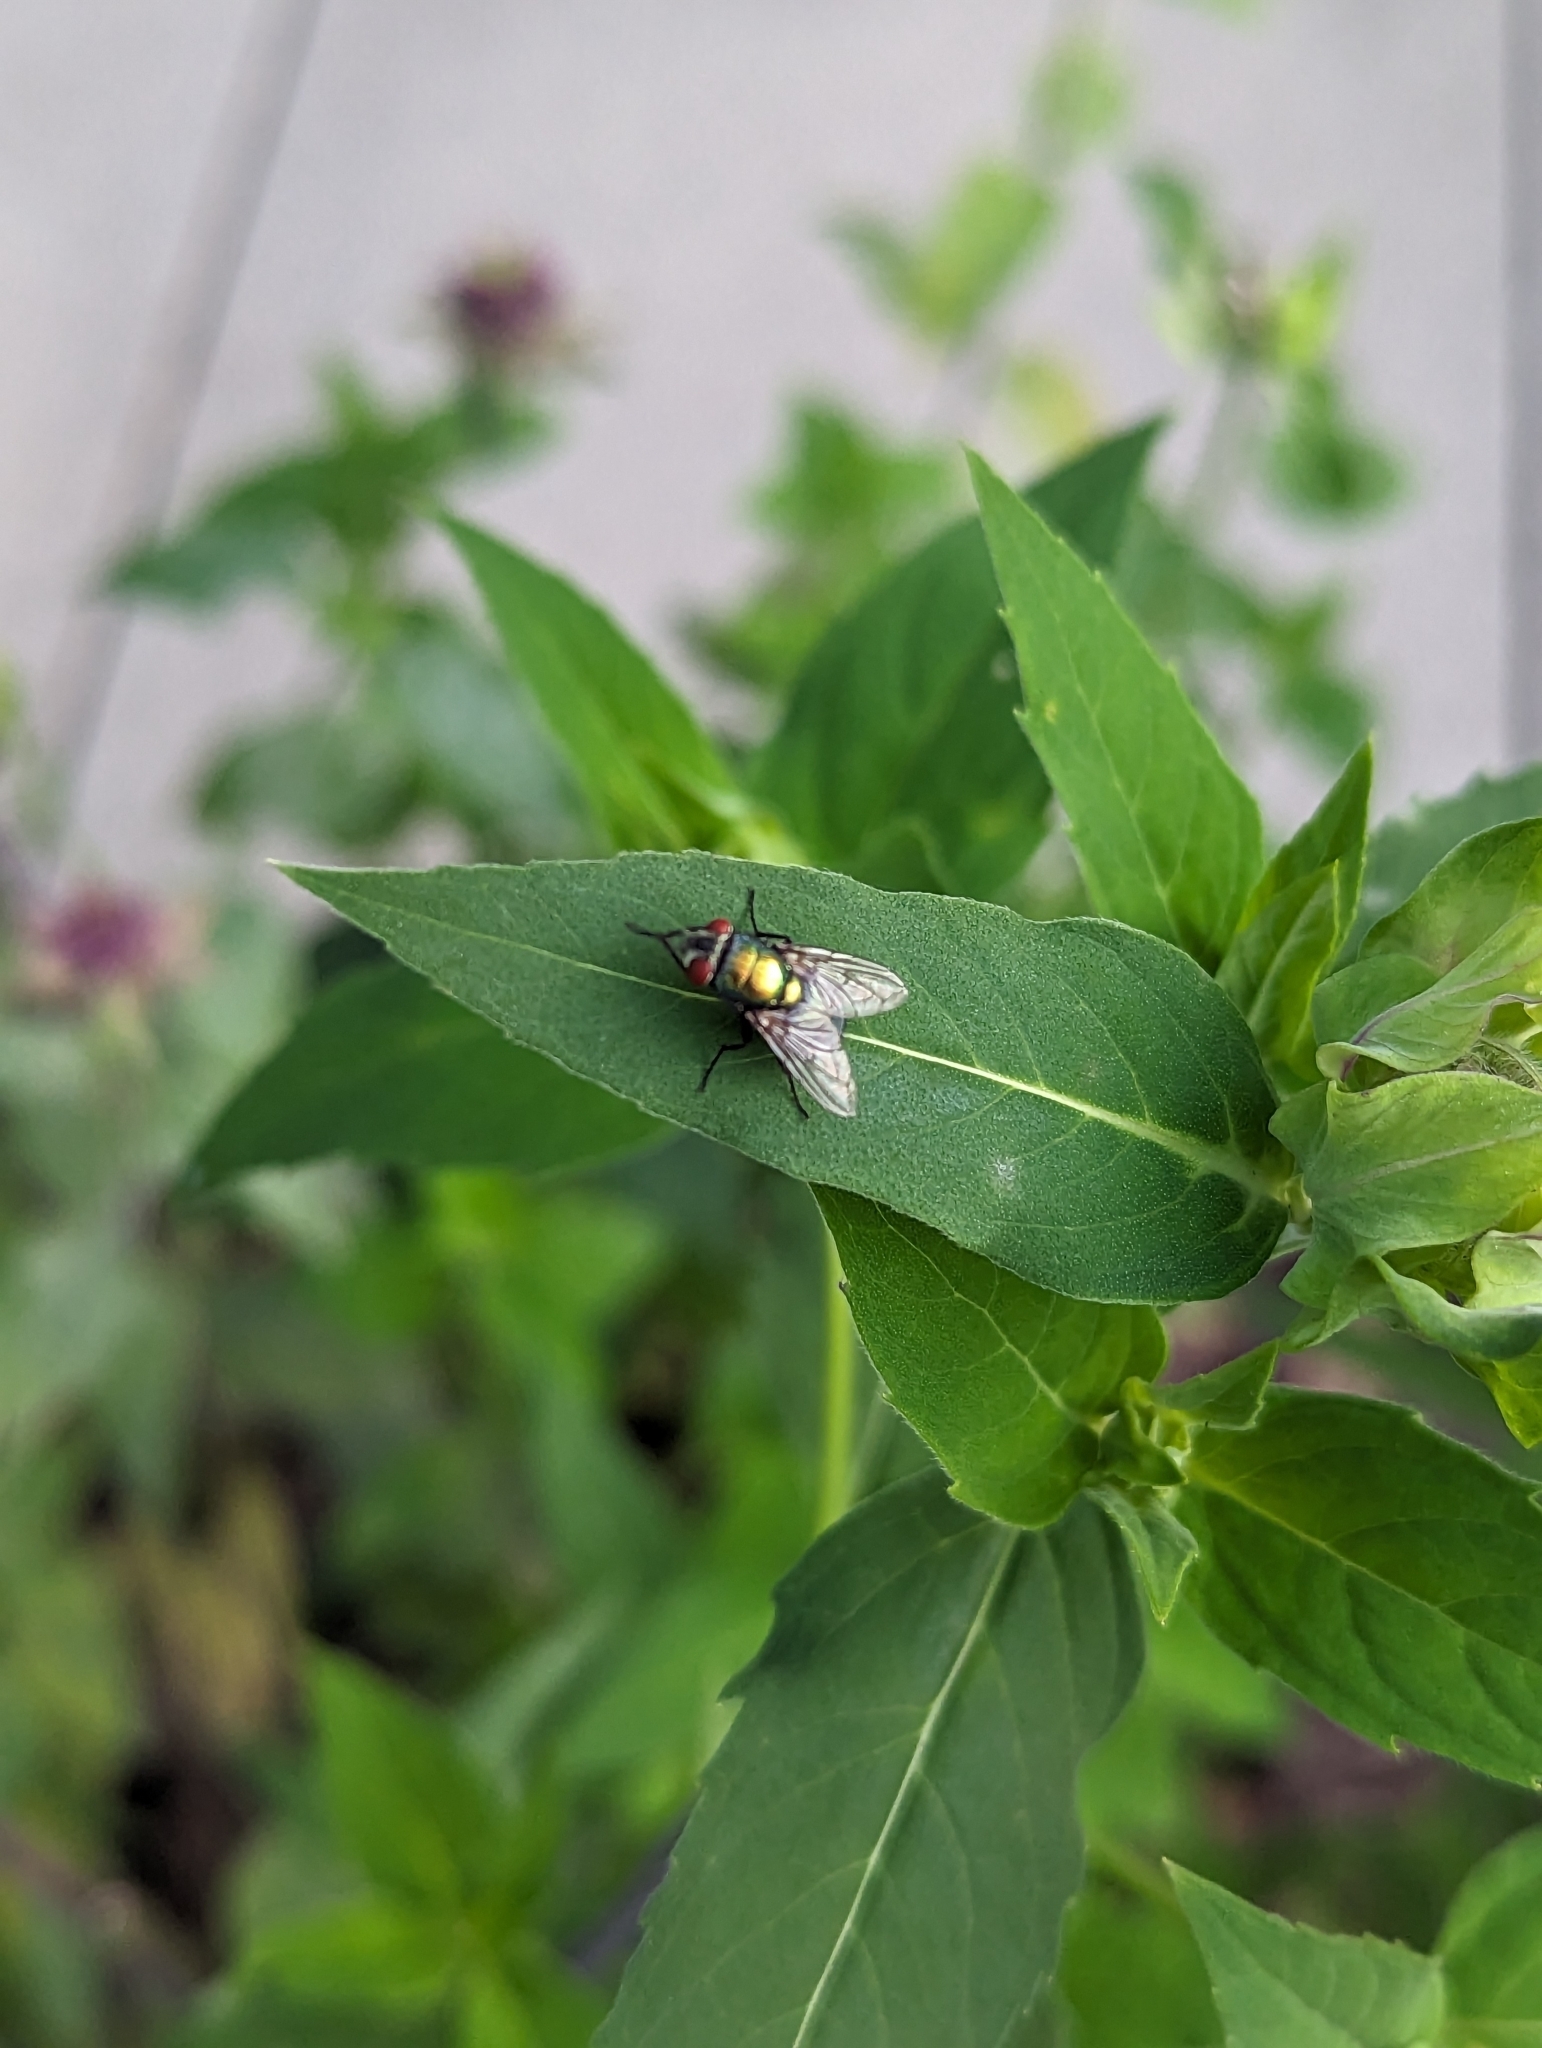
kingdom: Animalia
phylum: Arthropoda
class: Insecta
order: Diptera
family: Calliphoridae
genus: Lucilia
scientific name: Lucilia sericata
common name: Blow fly
